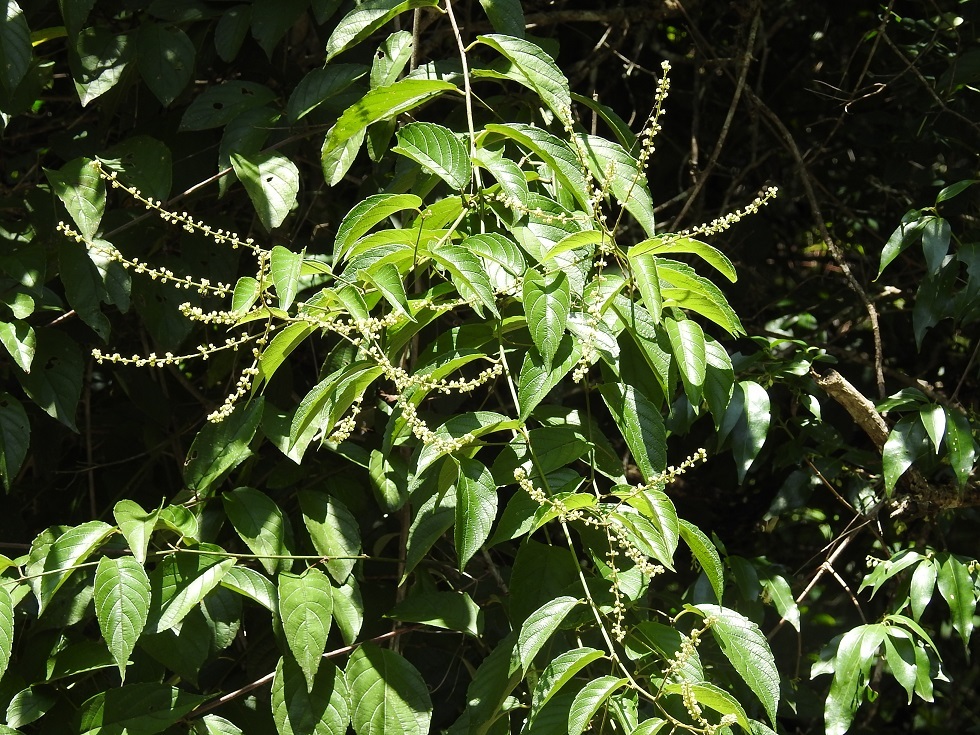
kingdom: Plantae
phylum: Tracheophyta
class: Magnoliopsida
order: Rosales
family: Rhamnaceae
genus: Gouania
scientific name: Gouania lupuloides
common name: Chewstick
